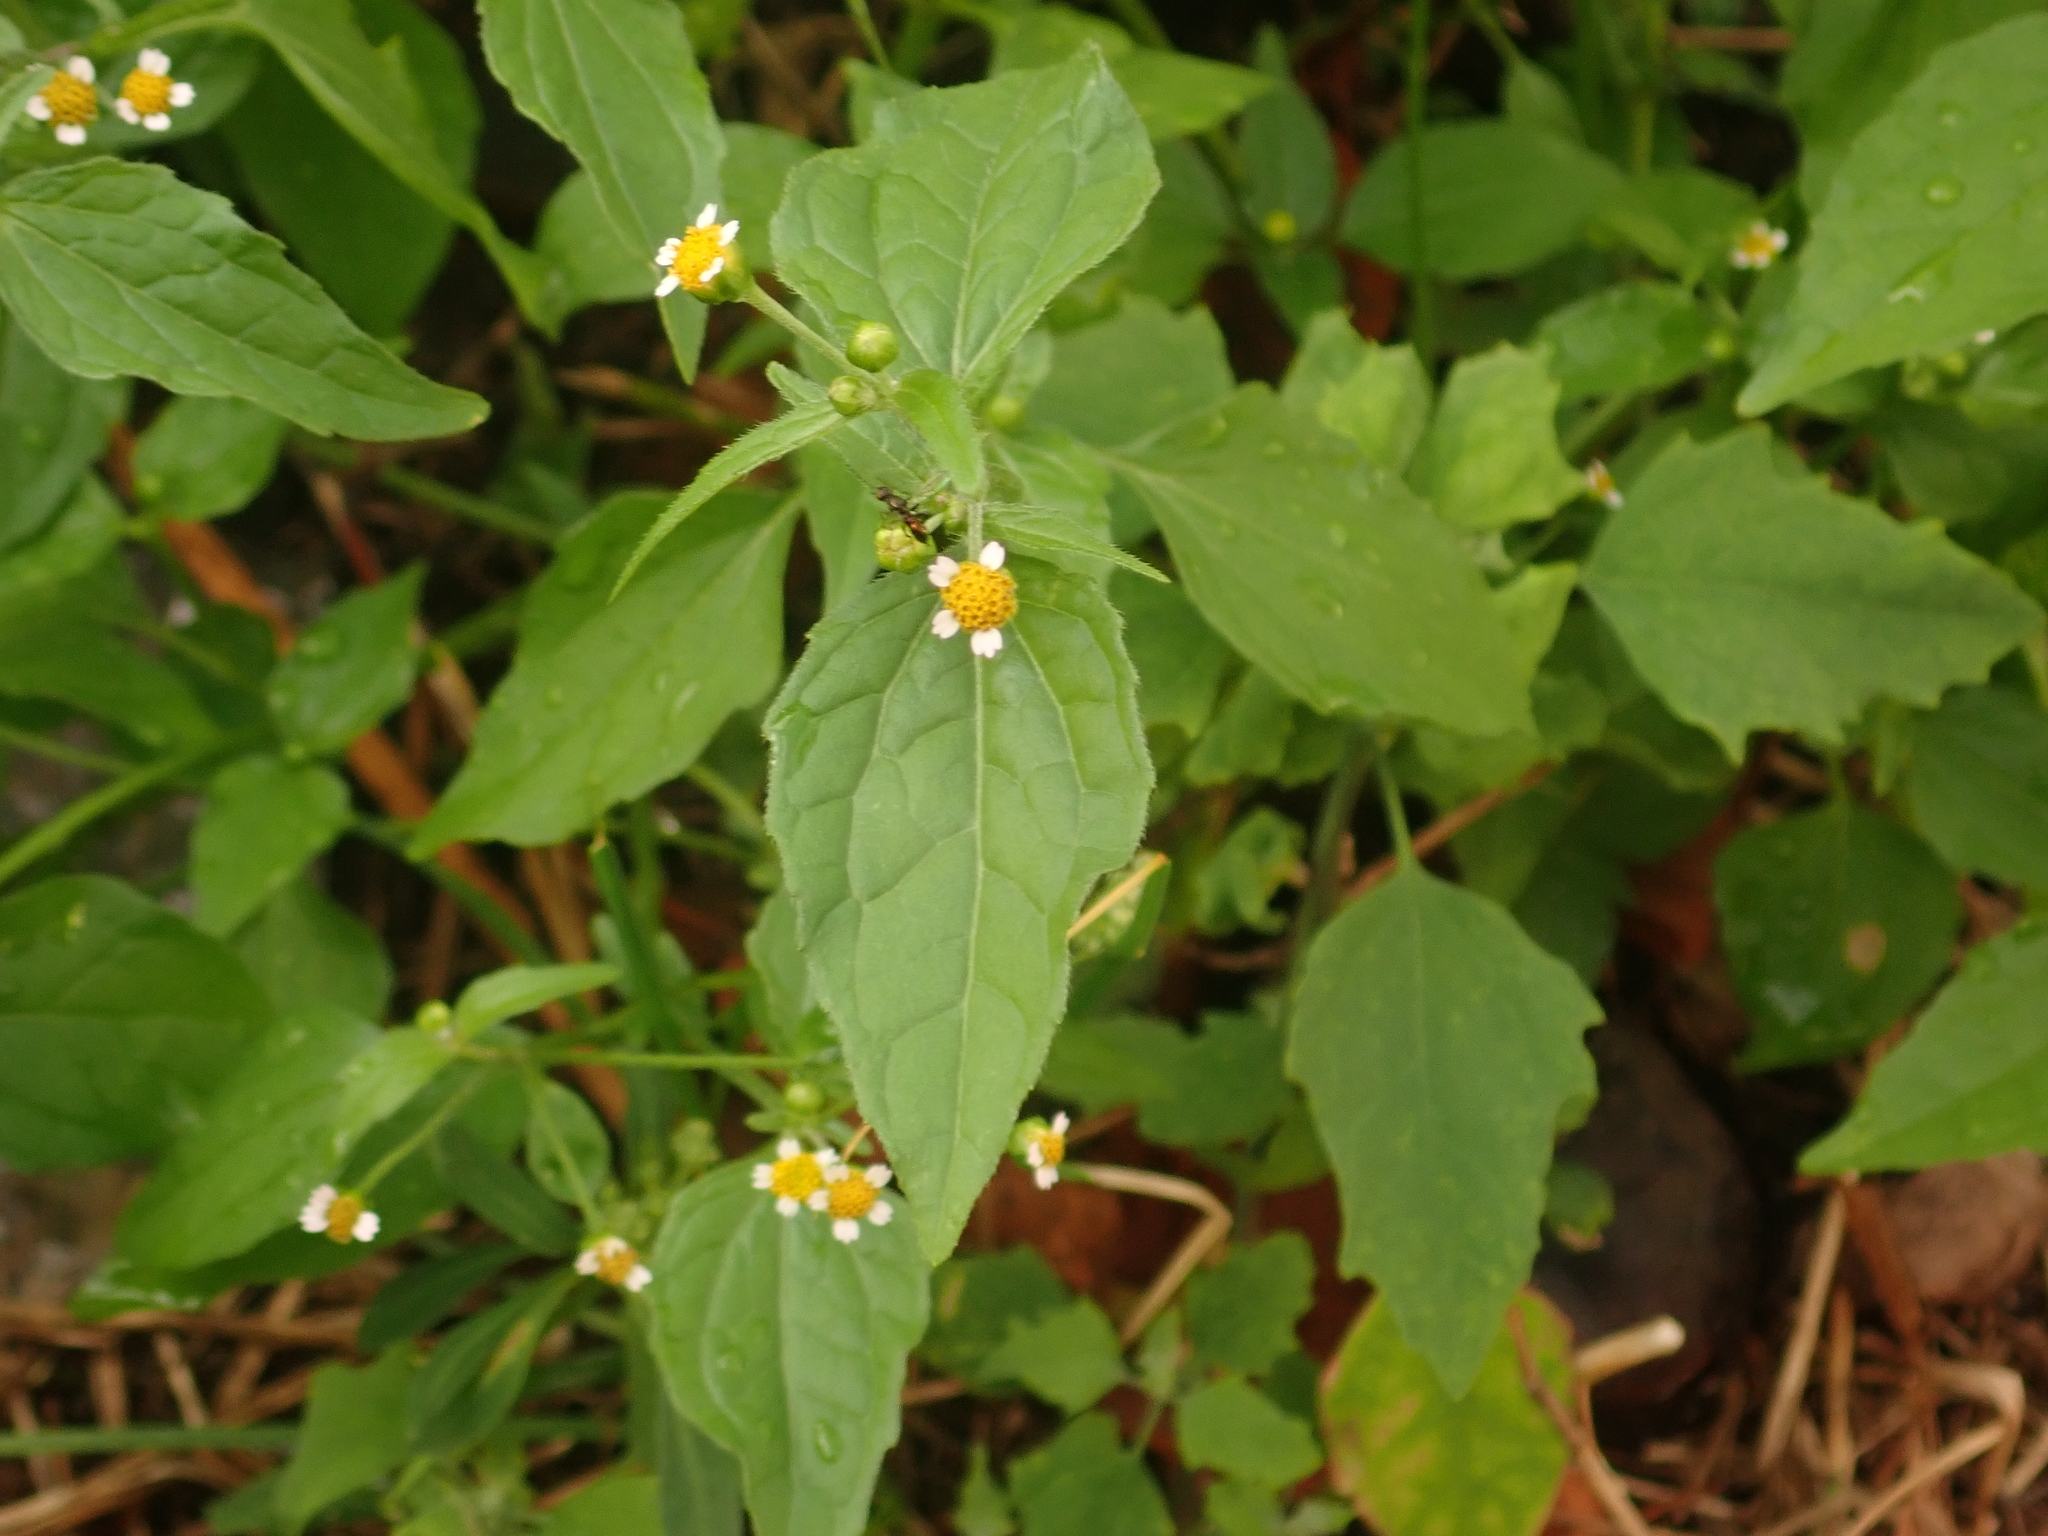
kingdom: Plantae
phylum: Tracheophyta
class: Magnoliopsida
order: Asterales
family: Asteraceae
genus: Galinsoga
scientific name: Galinsoga parviflora
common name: Gallant soldier
